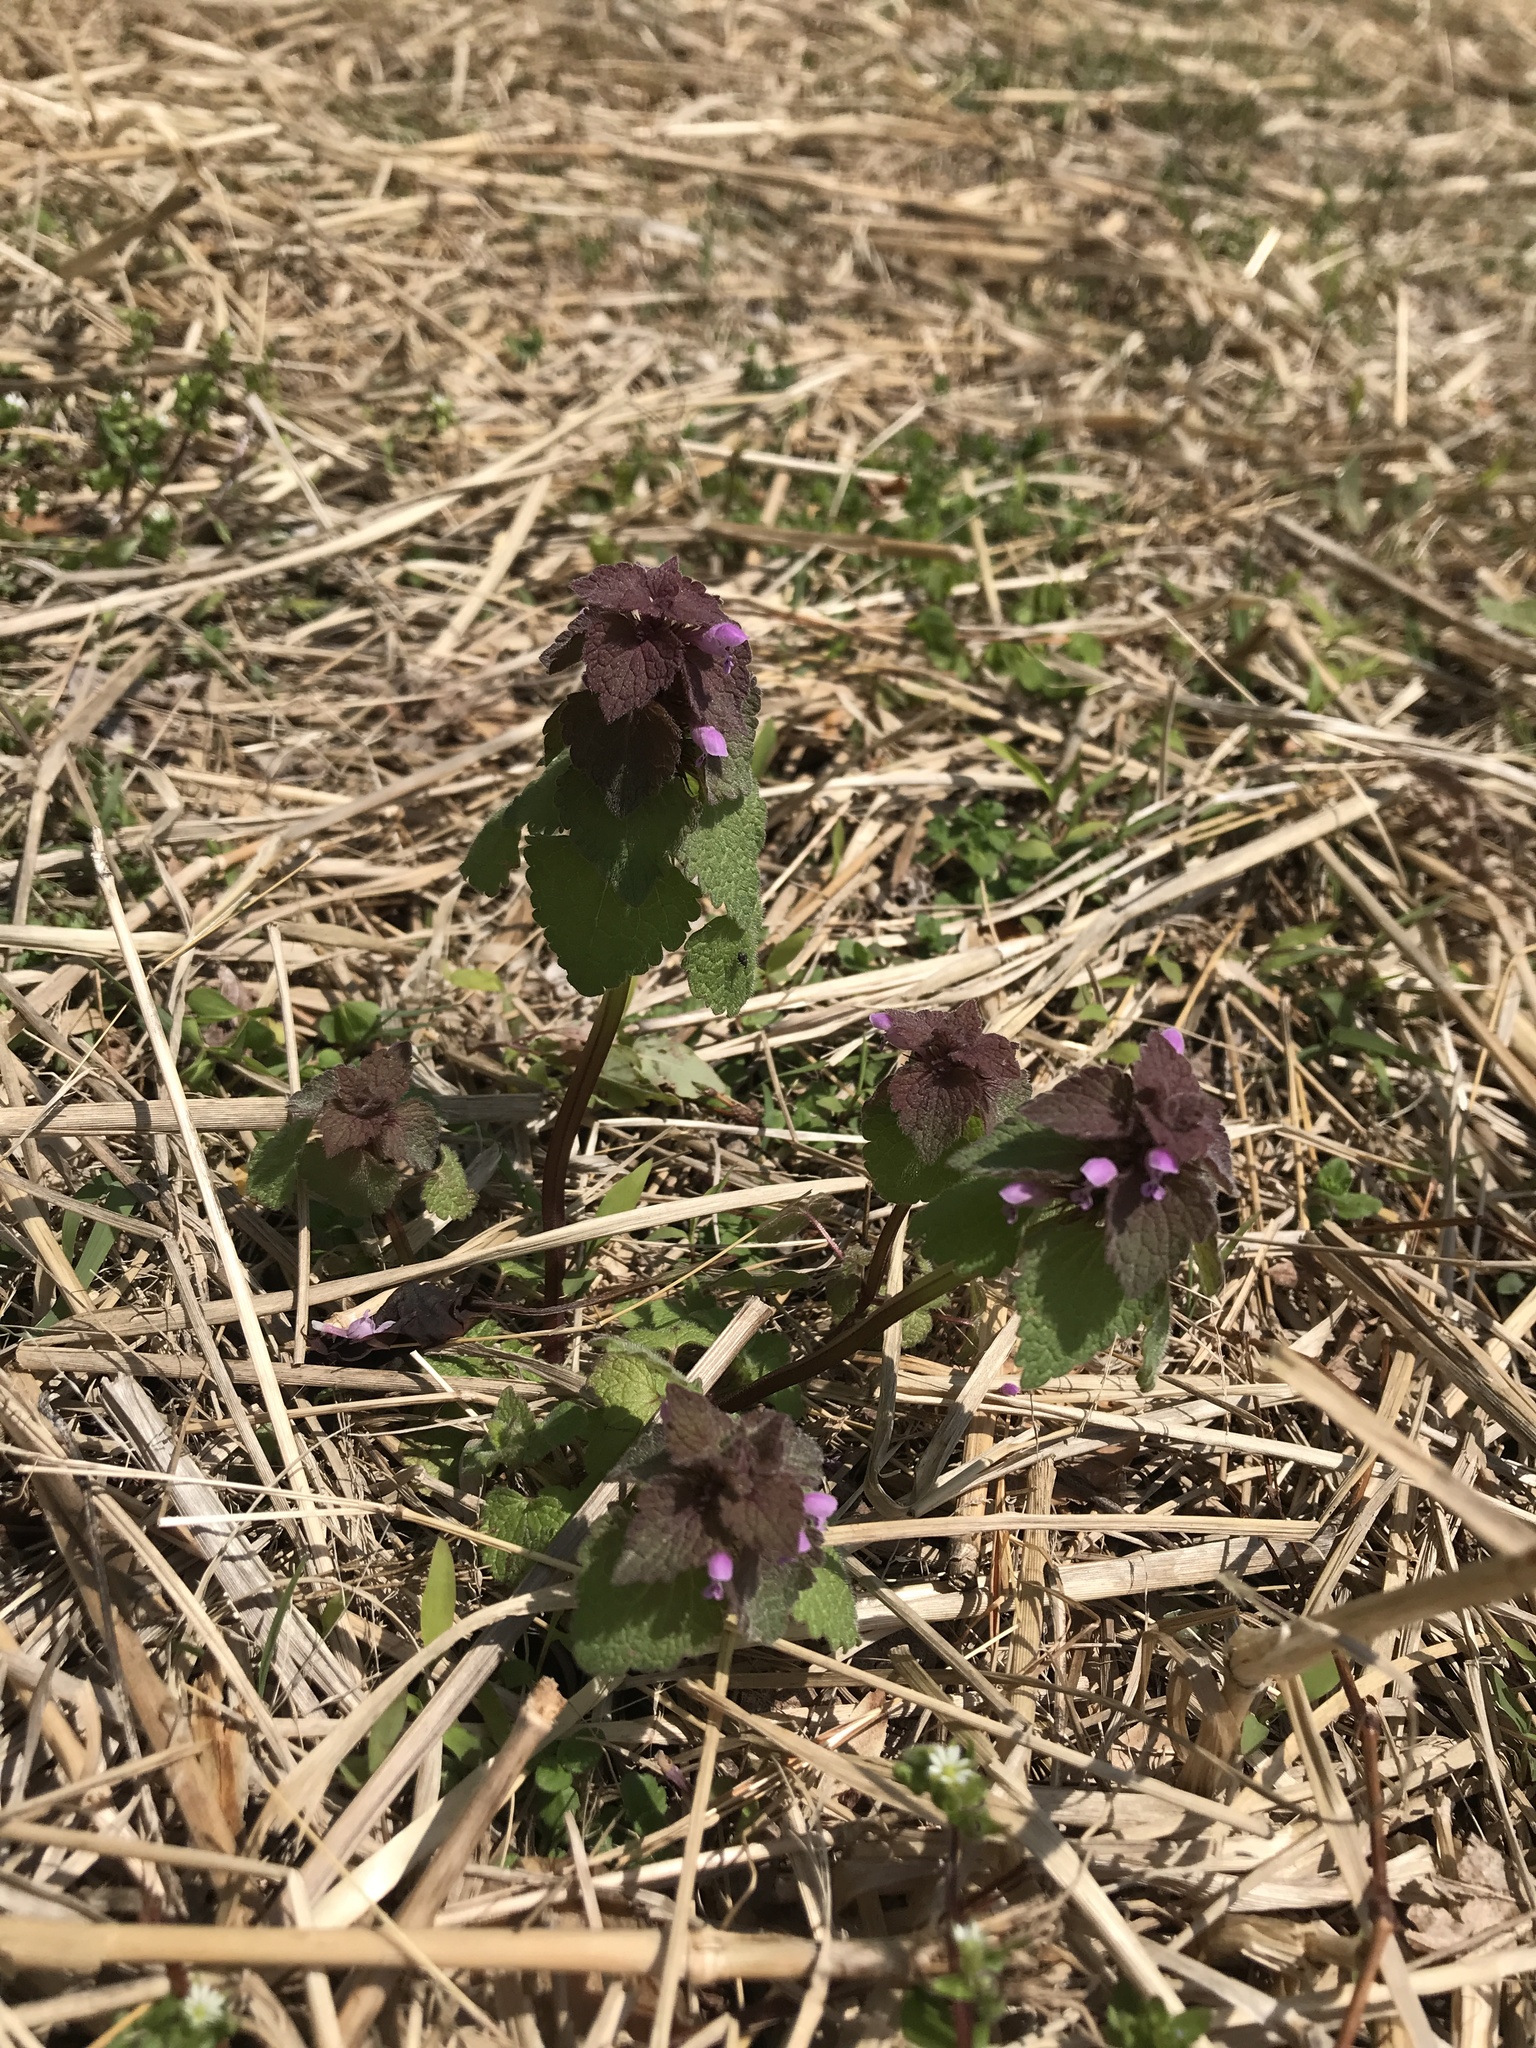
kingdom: Plantae
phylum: Tracheophyta
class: Magnoliopsida
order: Lamiales
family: Lamiaceae
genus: Lamium
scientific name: Lamium purpureum
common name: Red dead-nettle
